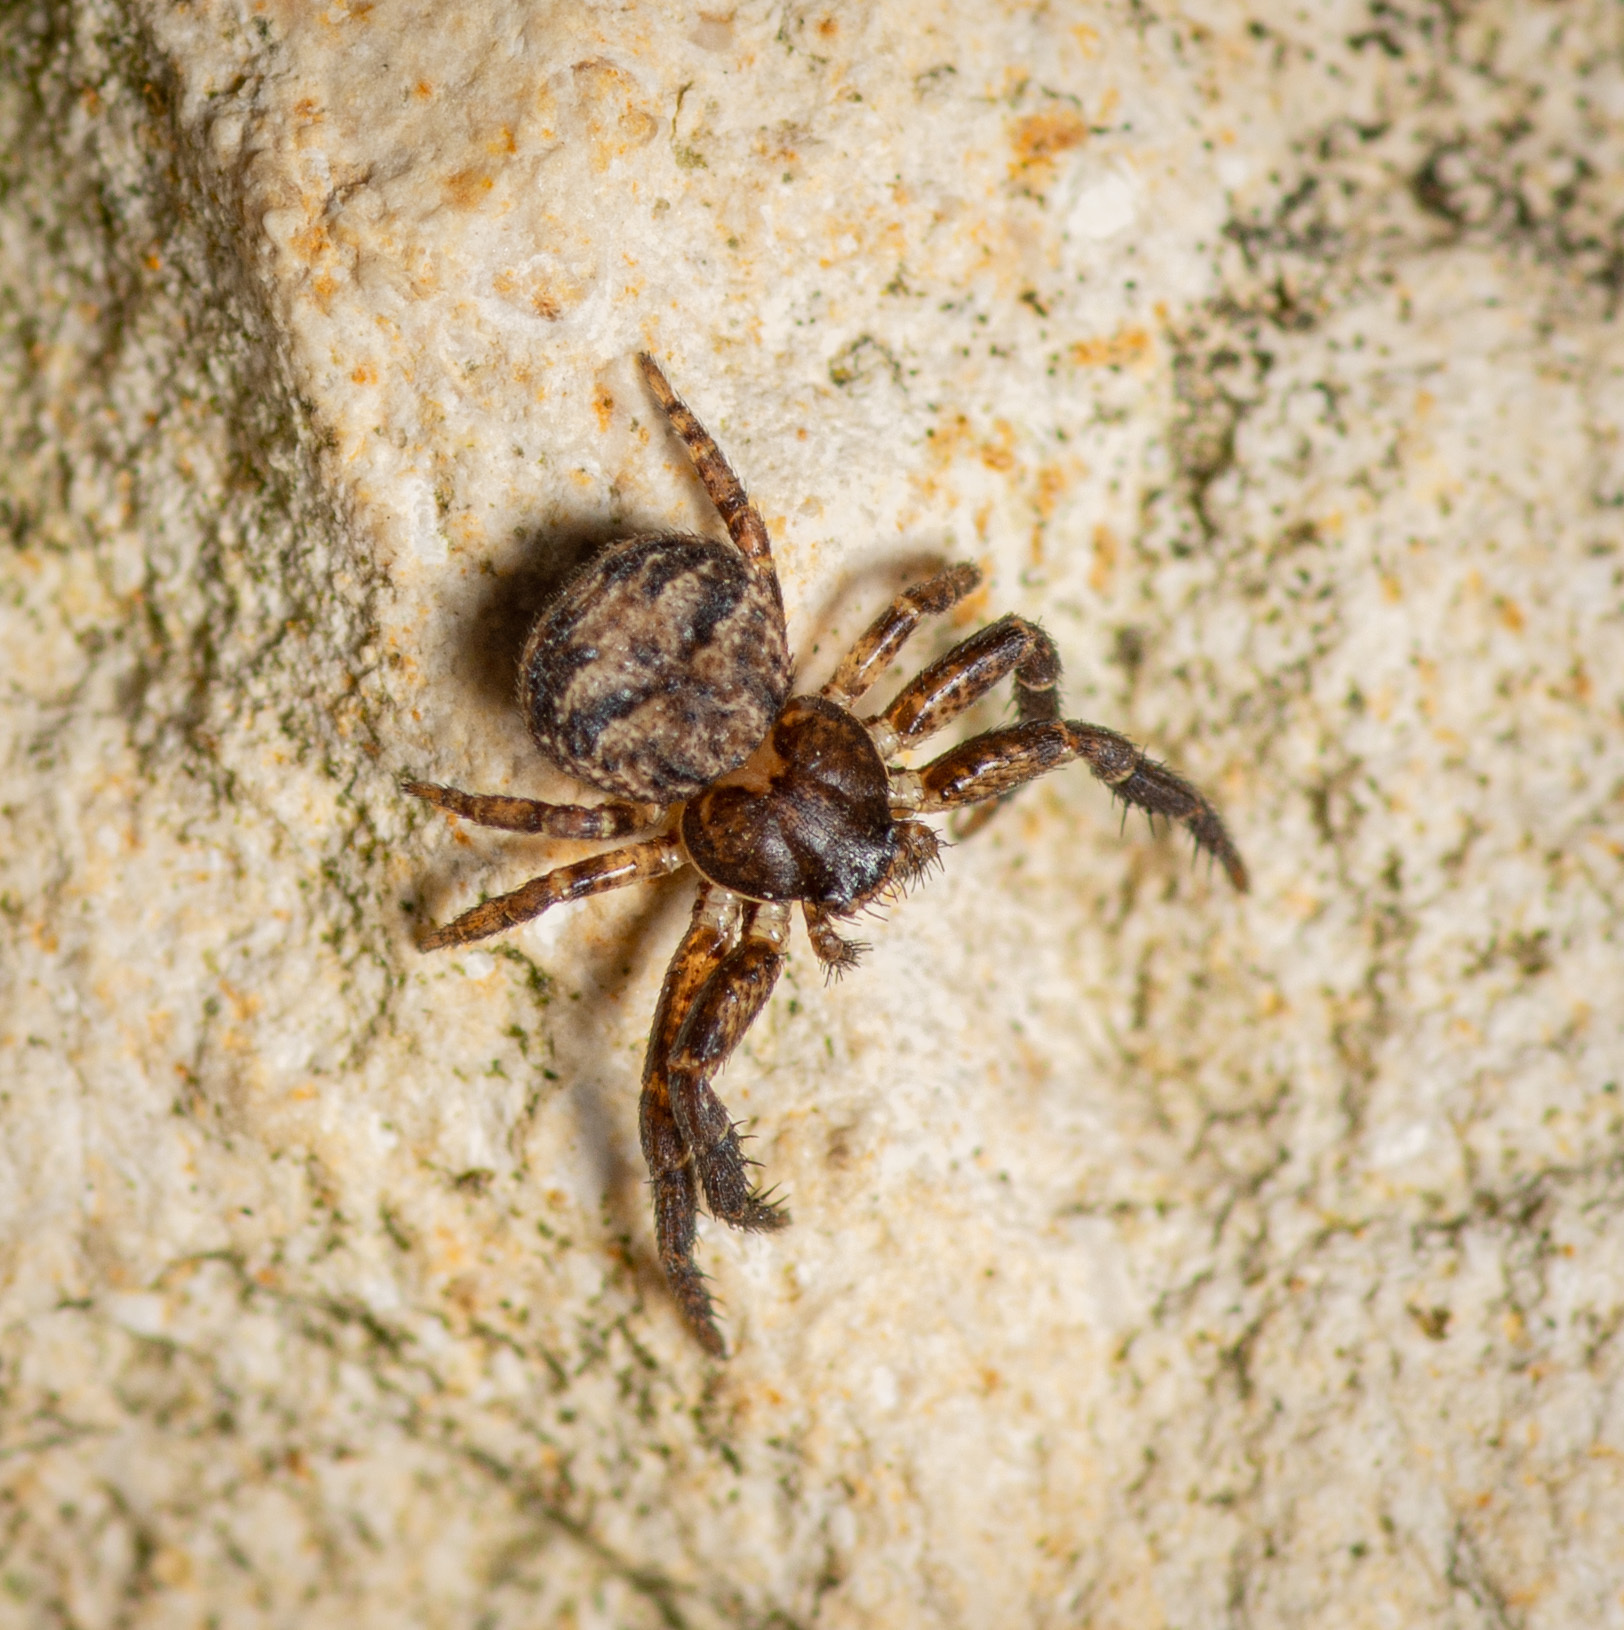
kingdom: Animalia
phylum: Arthropoda
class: Arachnida
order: Araneae
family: Thomisidae
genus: Bassaniana
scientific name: Bassaniana versicolor
